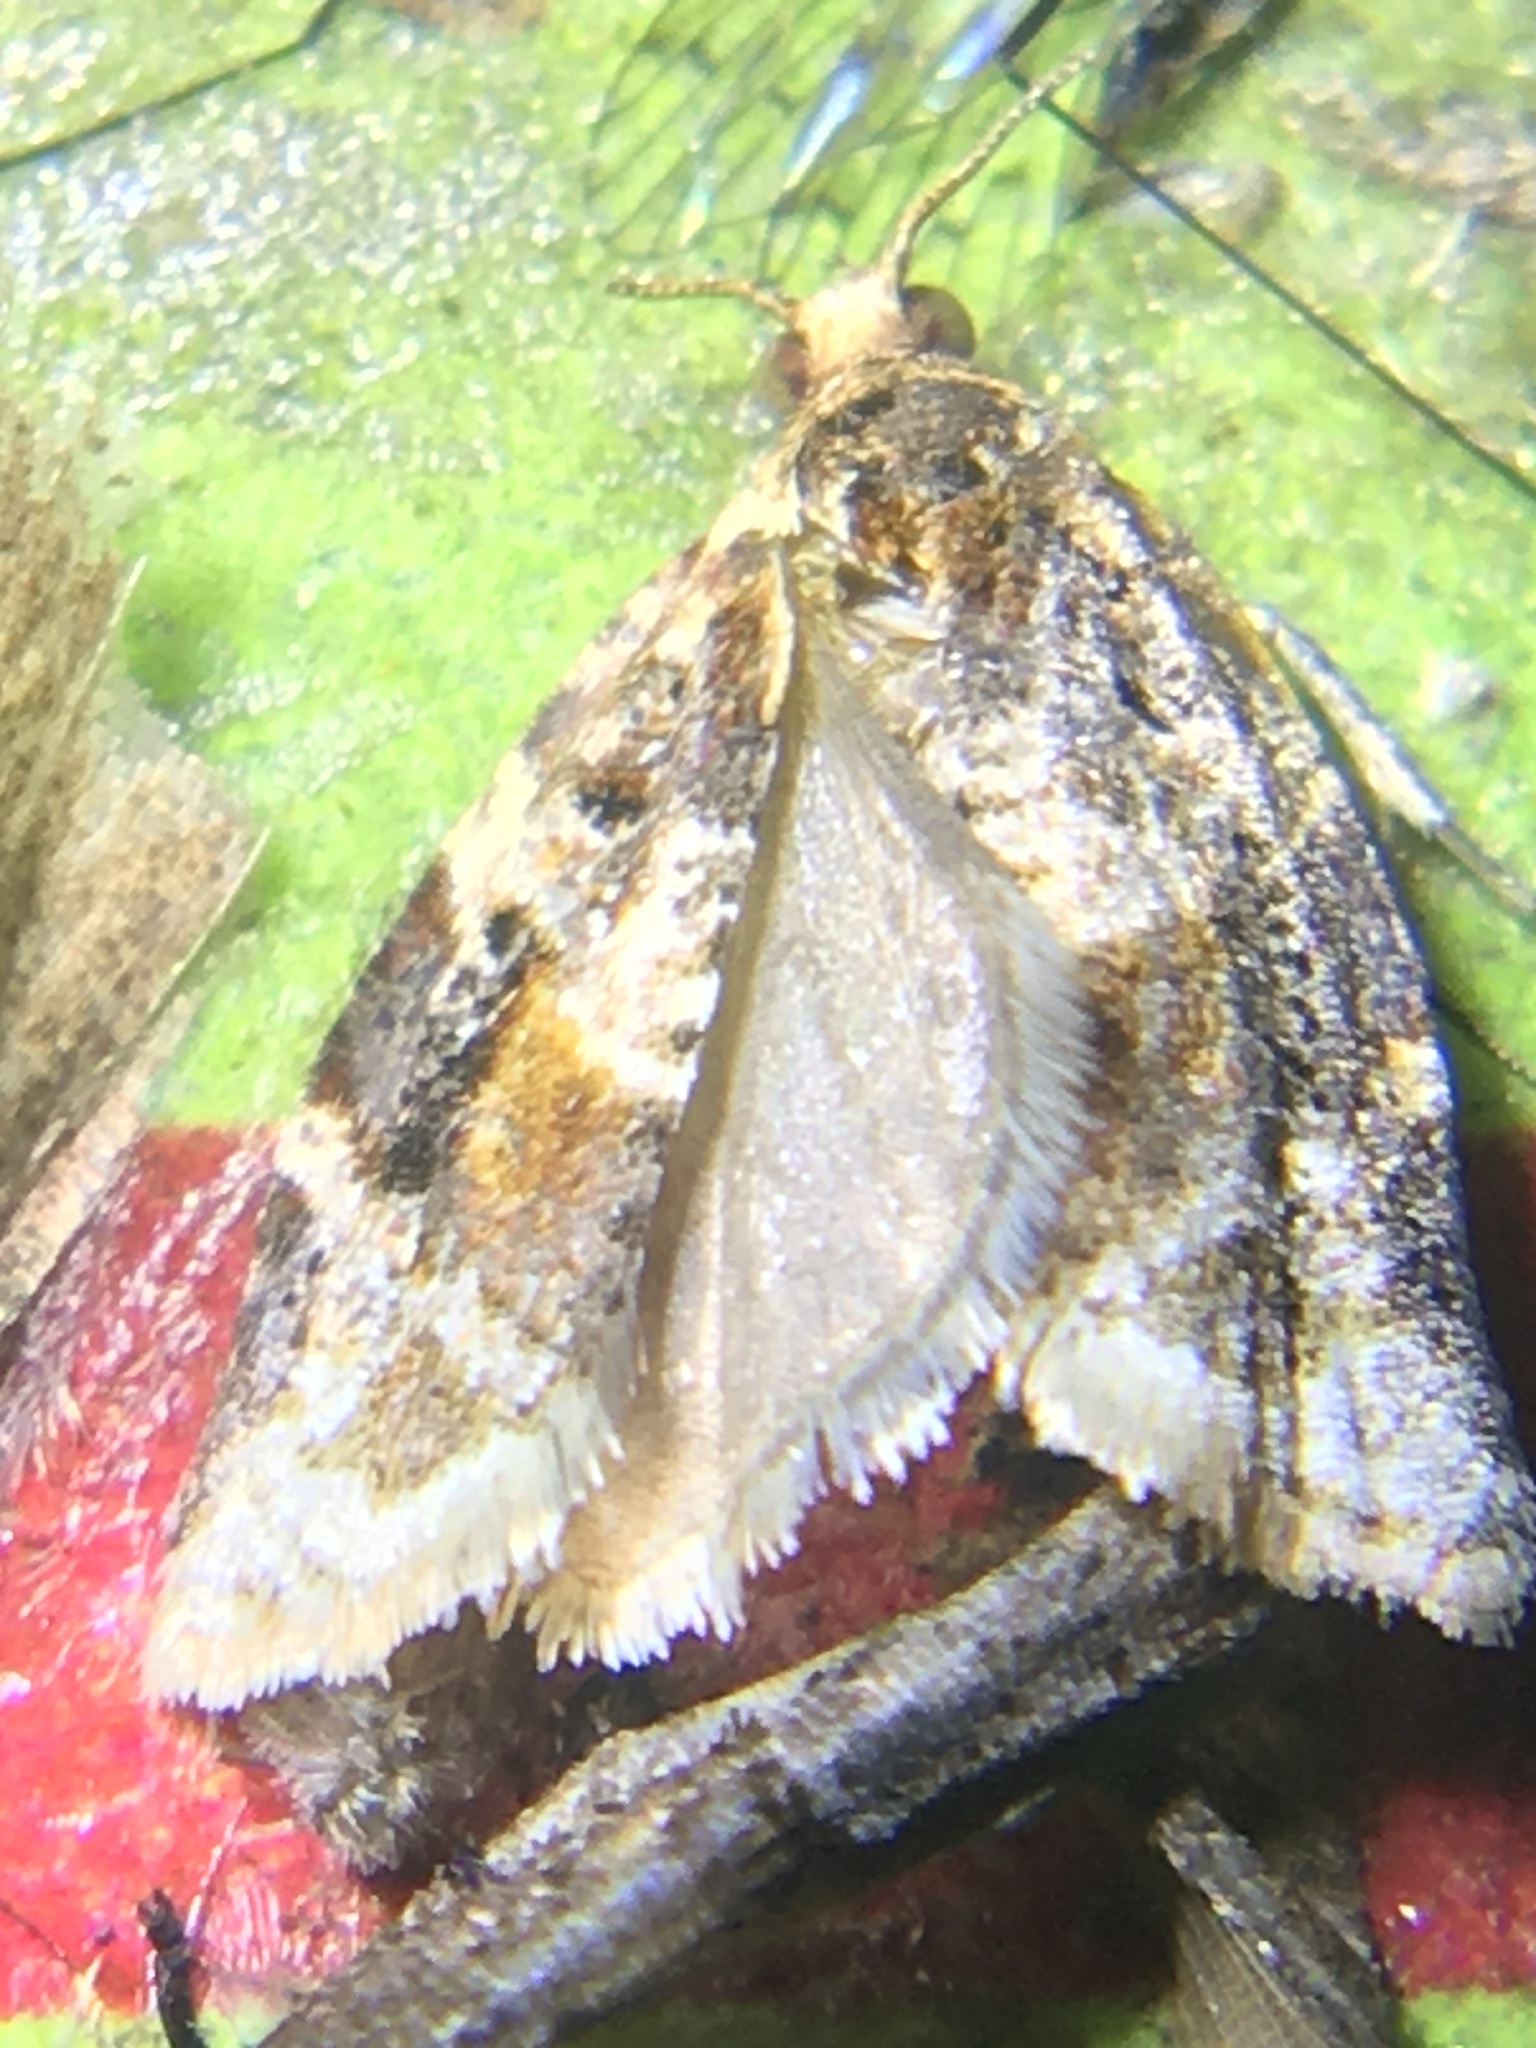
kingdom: Animalia
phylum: Arthropoda
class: Insecta
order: Lepidoptera
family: Tortricidae
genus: Argyrotaenia
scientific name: Argyrotaenia velutinana
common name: Red-banded leafroller moth
